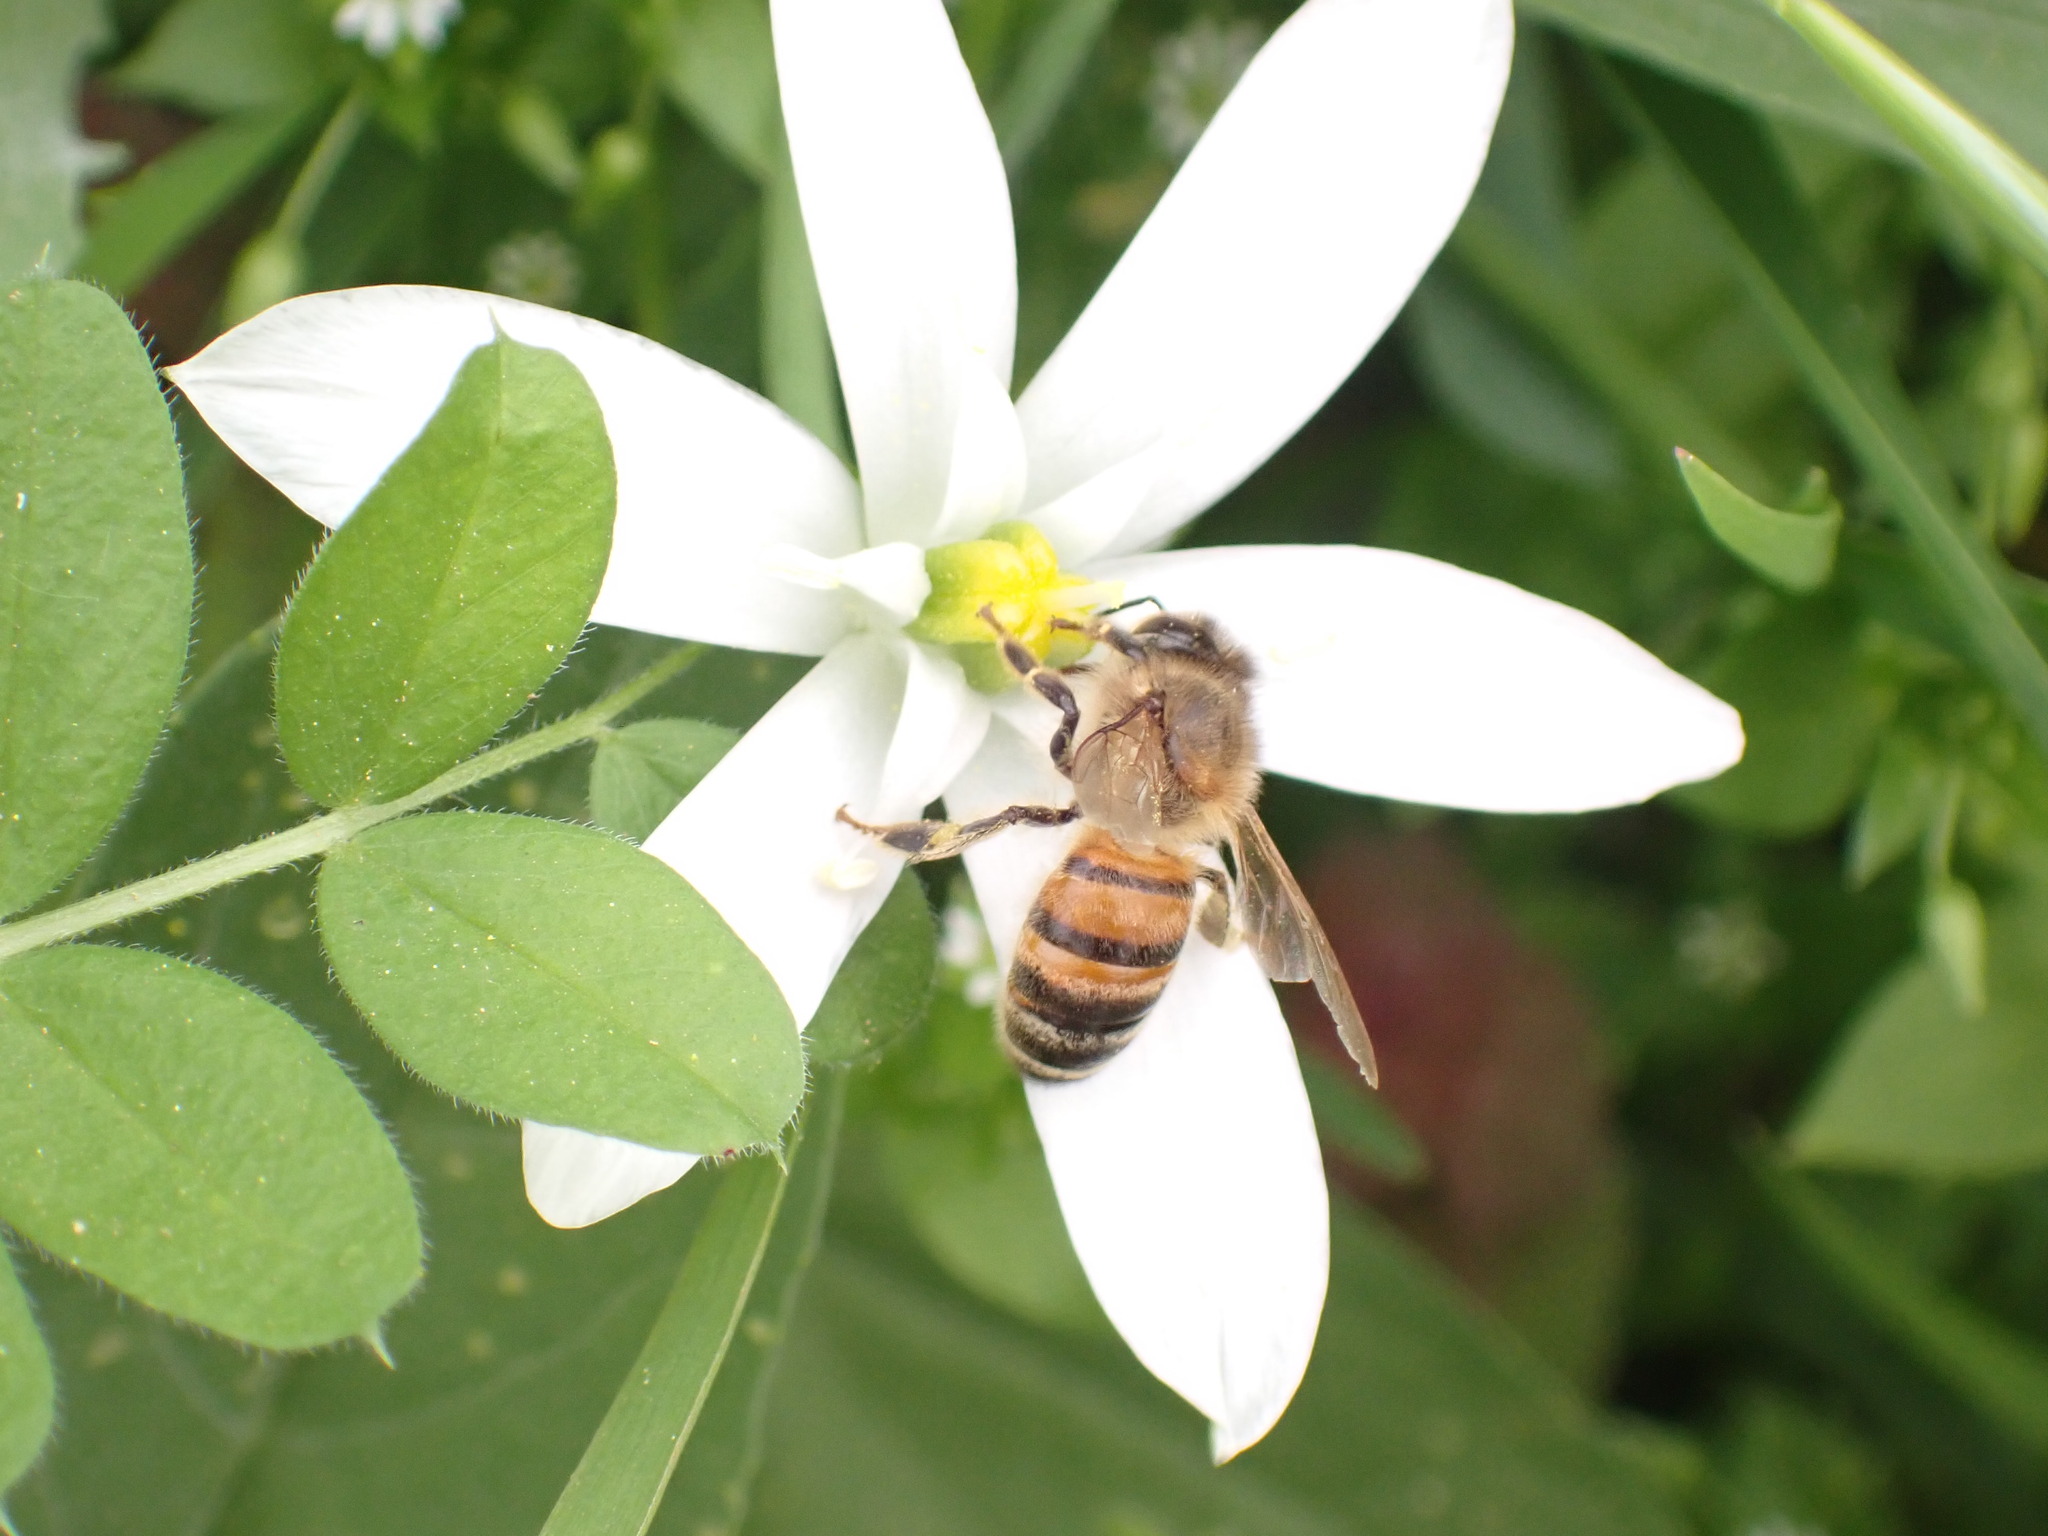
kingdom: Animalia
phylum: Arthropoda
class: Insecta
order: Hymenoptera
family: Apidae
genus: Apis
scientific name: Apis mellifera
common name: Honey bee
